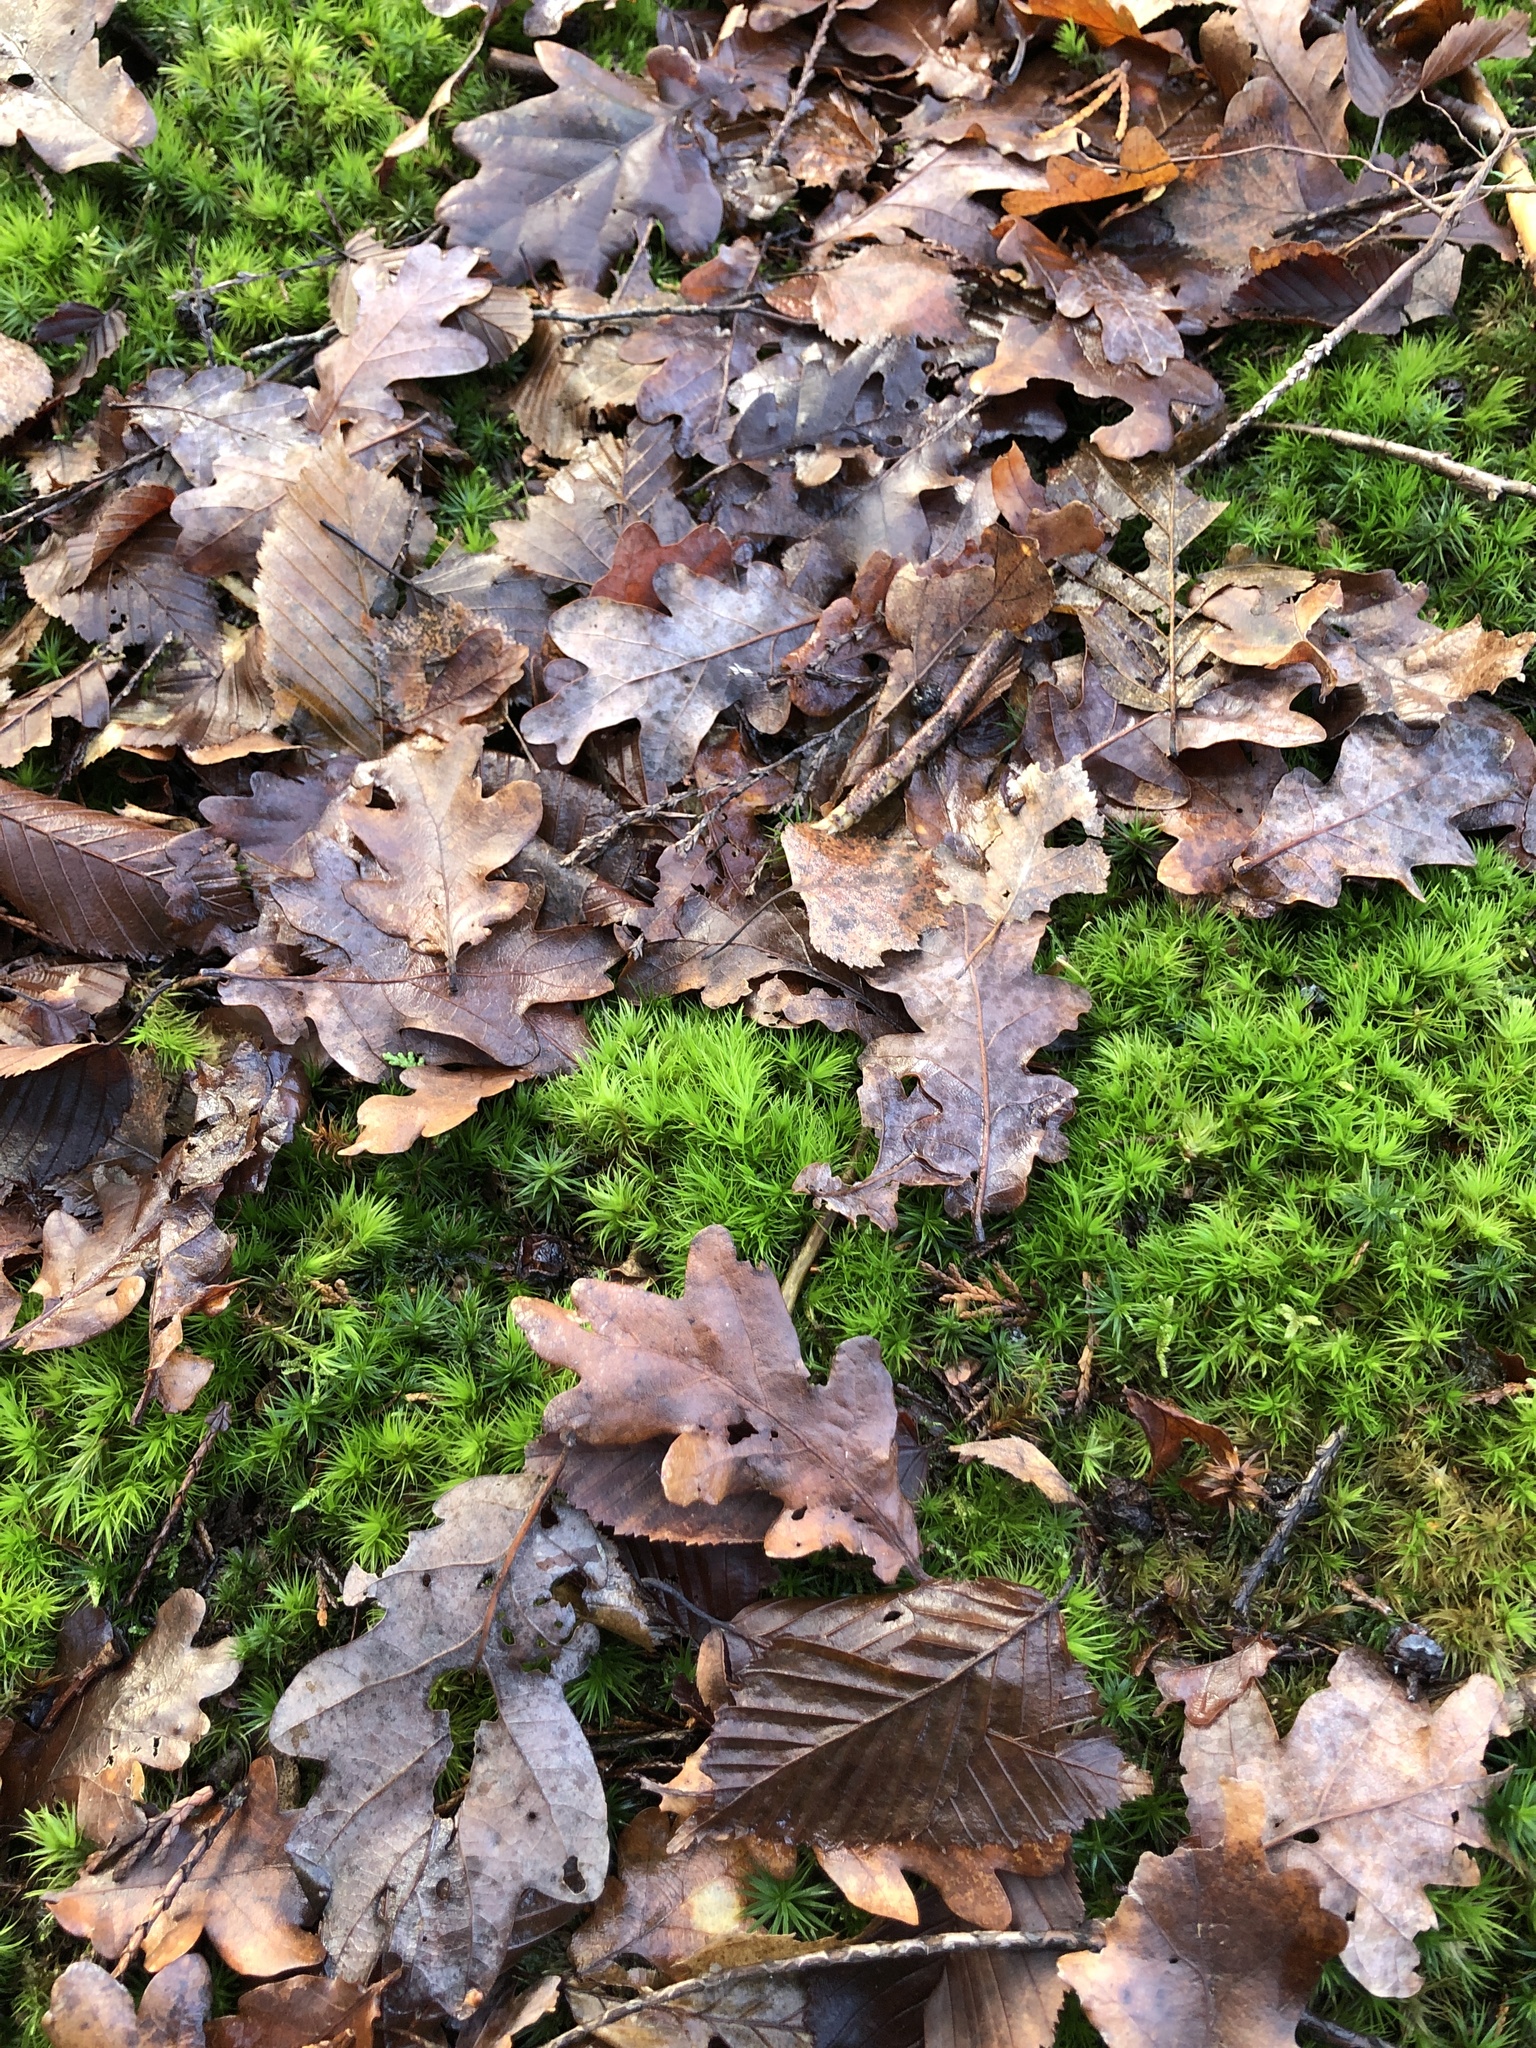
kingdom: Plantae
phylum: Bryophyta
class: Bryopsida
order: Dicranales
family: Dicranaceae
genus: Dicranum
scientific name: Dicranum scoparium
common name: Broom fork-moss
